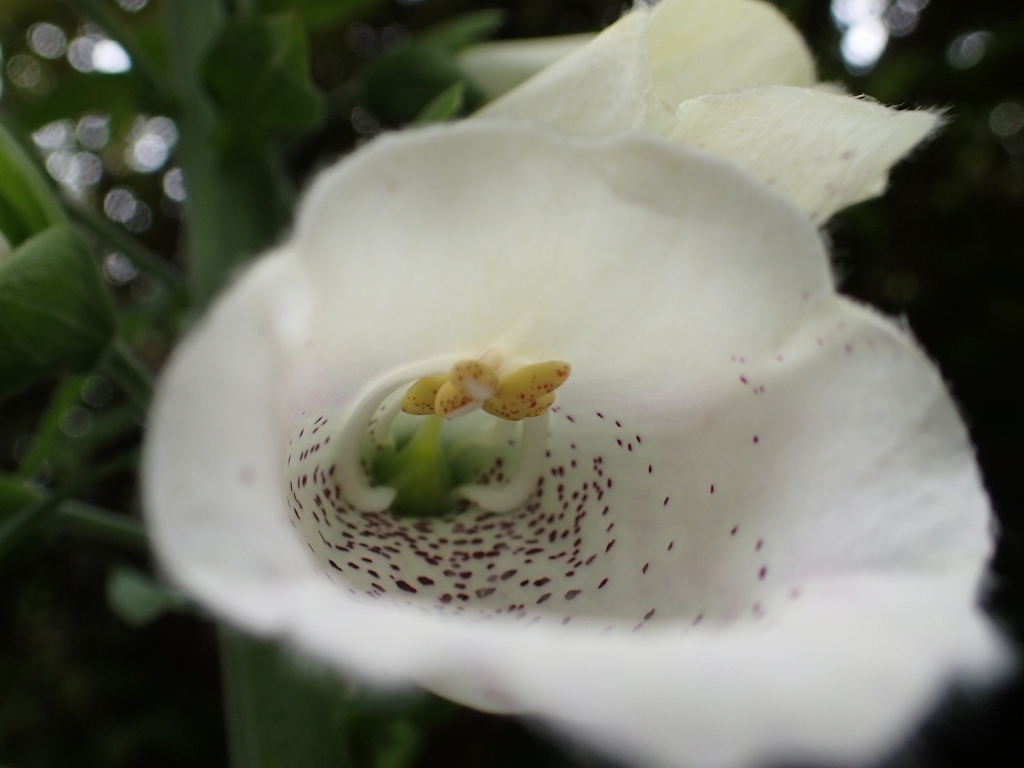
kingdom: Plantae
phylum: Tracheophyta
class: Magnoliopsida
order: Lamiales
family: Plantaginaceae
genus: Digitalis
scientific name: Digitalis purpurea
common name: Foxglove
